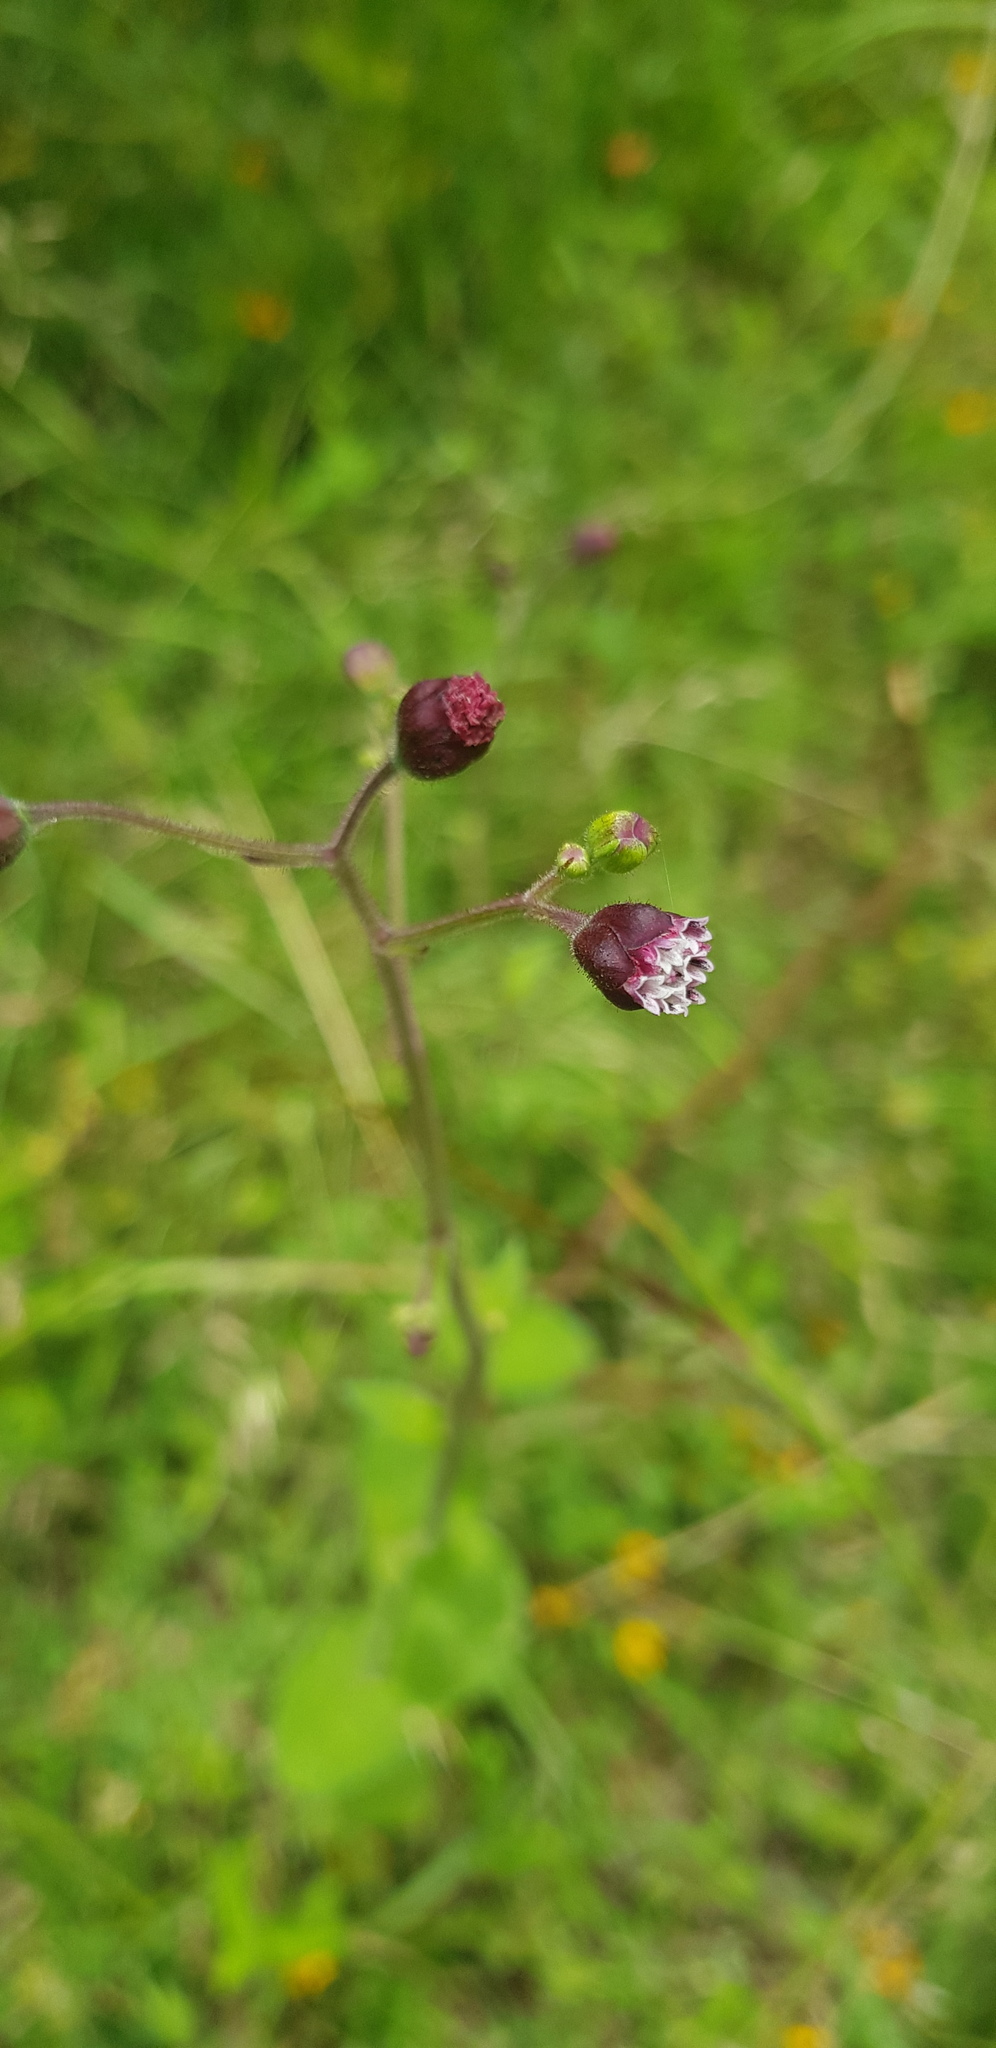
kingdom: Plantae
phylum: Tracheophyta
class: Magnoliopsida
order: Asterales
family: Asteraceae
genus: Florestina
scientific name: Florestina platyphylla
